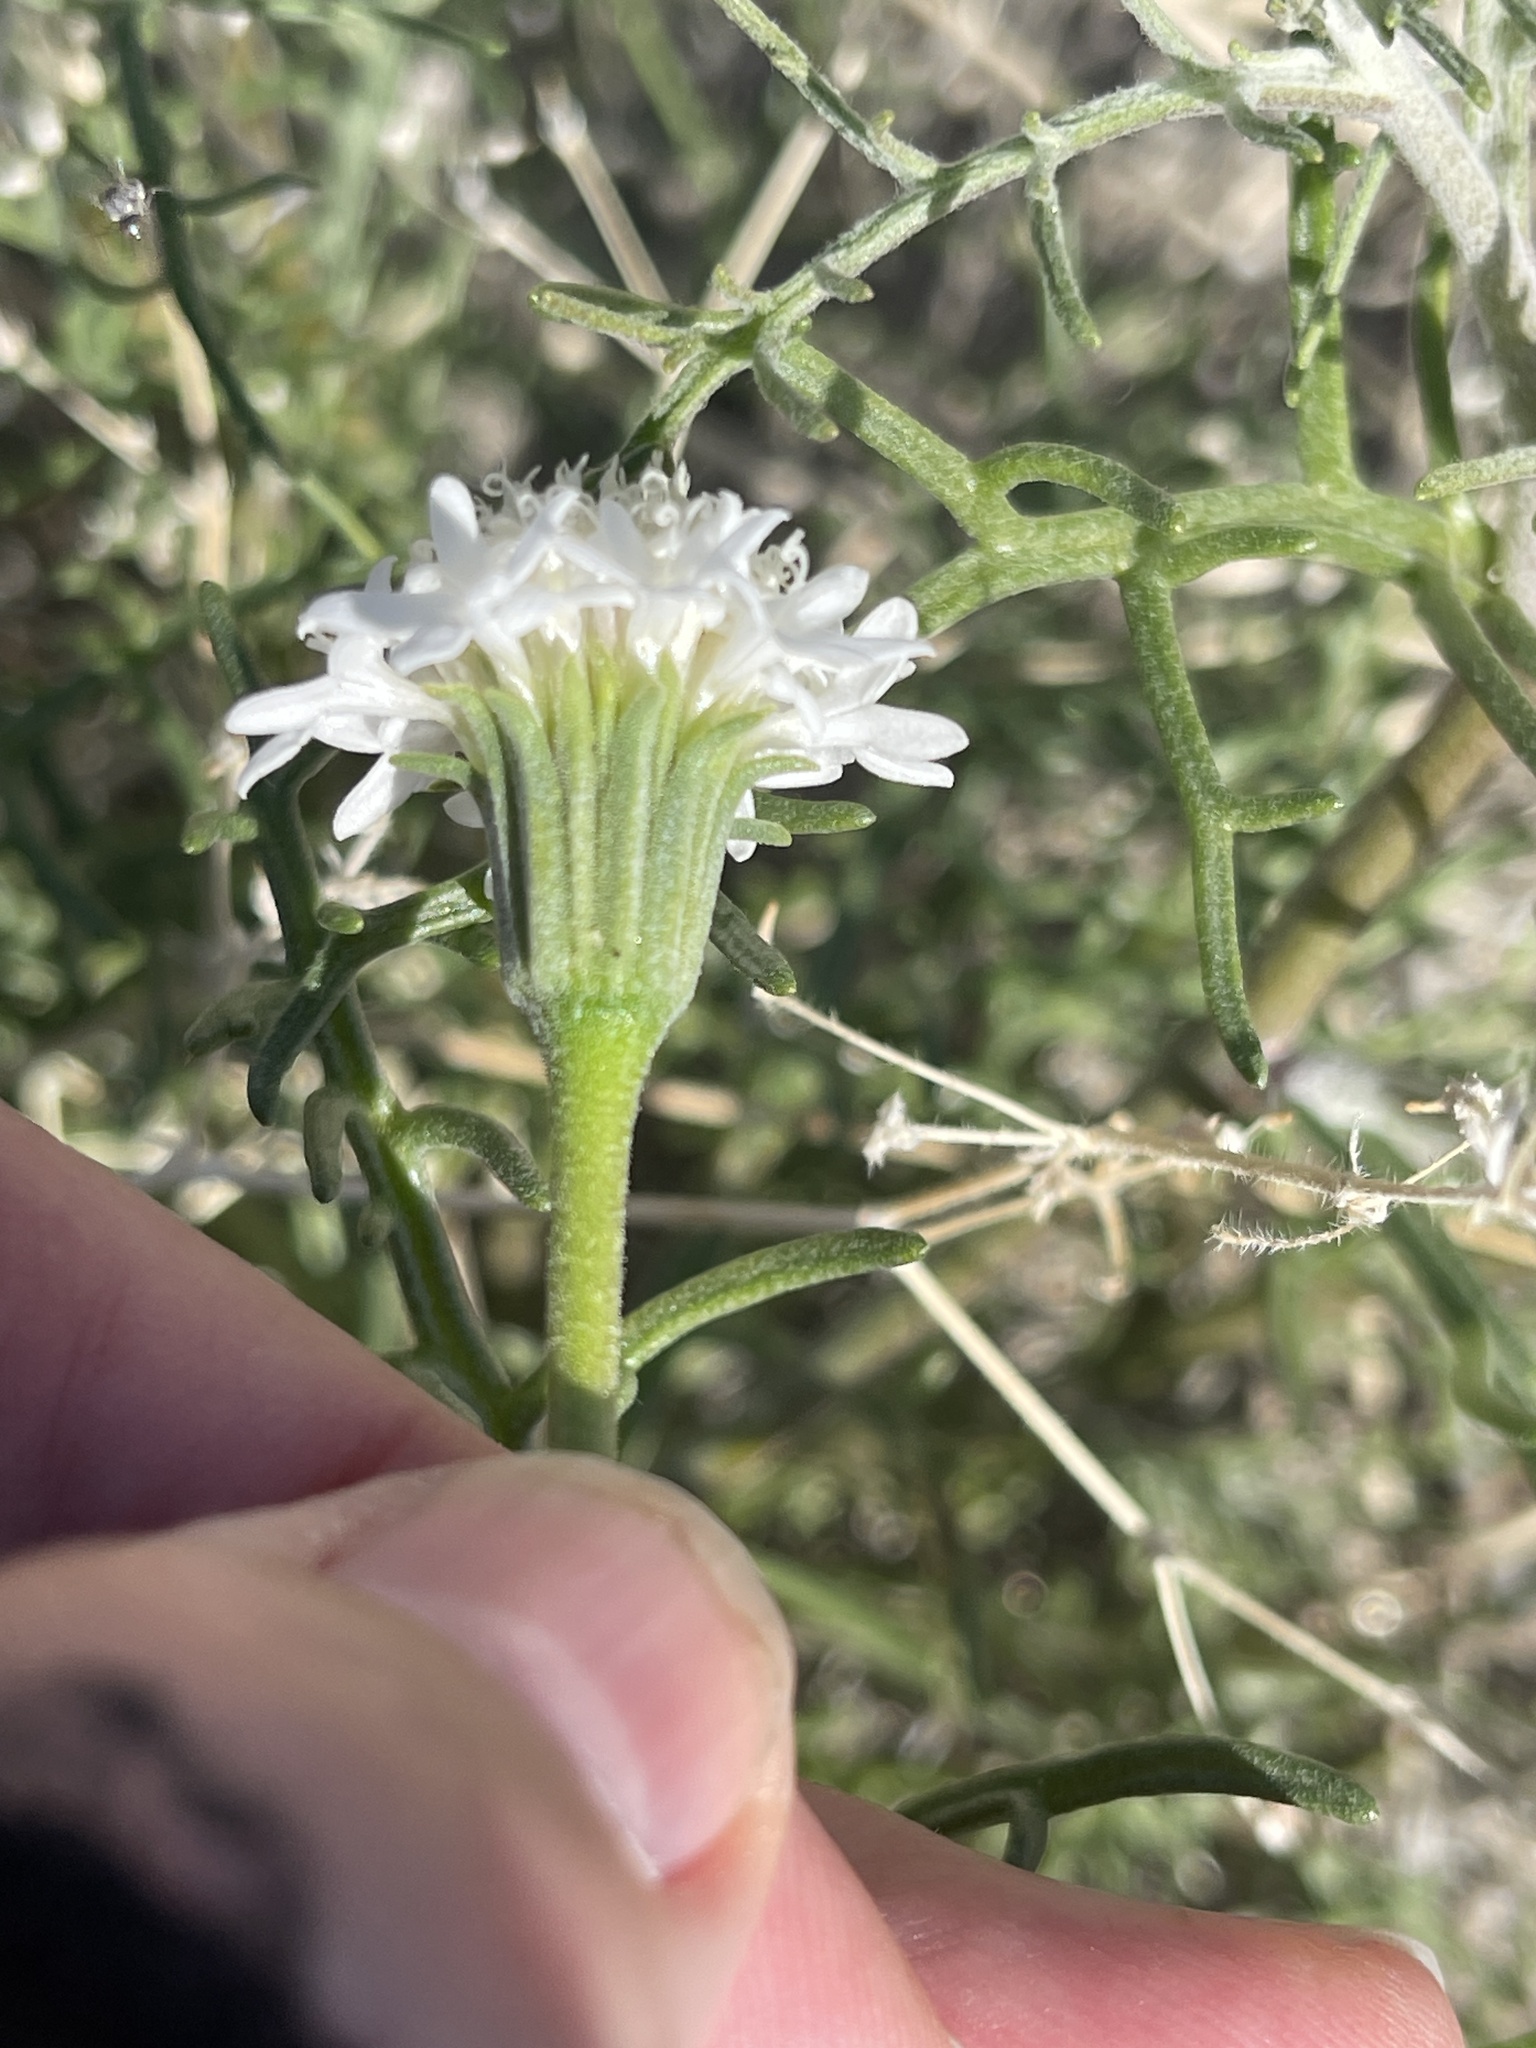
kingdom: Plantae
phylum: Tracheophyta
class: Magnoliopsida
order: Asterales
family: Asteraceae
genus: Chaenactis
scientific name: Chaenactis stevioides
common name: Desert pincushion
